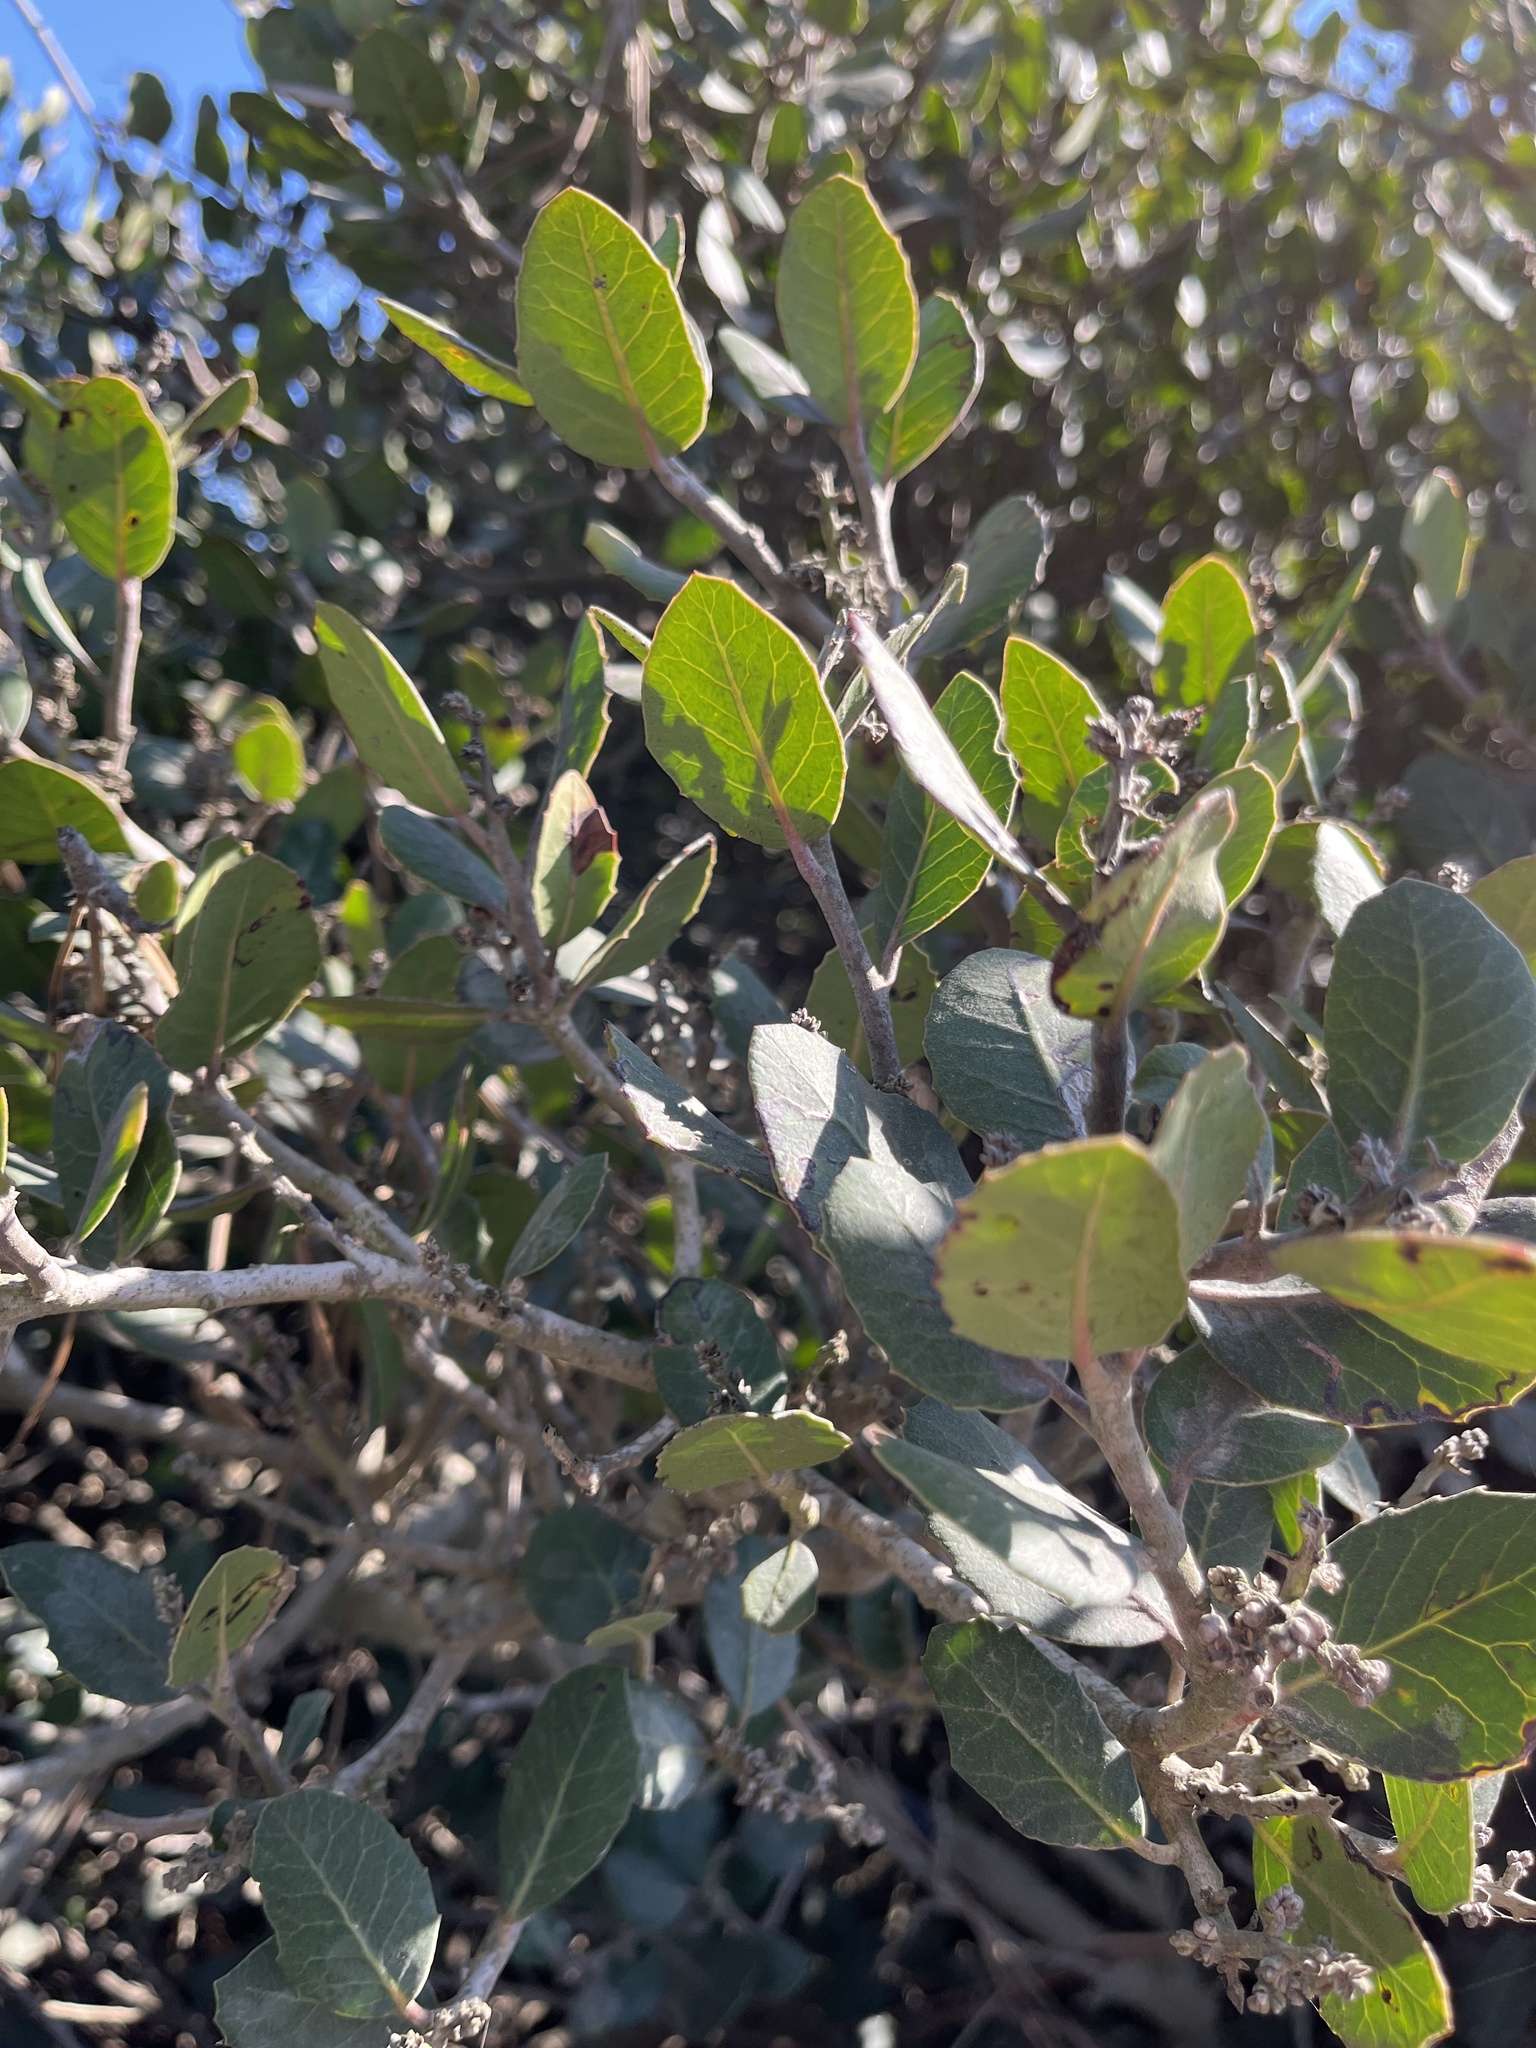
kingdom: Plantae
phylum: Tracheophyta
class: Magnoliopsida
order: Sapindales
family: Anacardiaceae
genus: Rhus
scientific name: Rhus integrifolia
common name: Lemonade sumac
